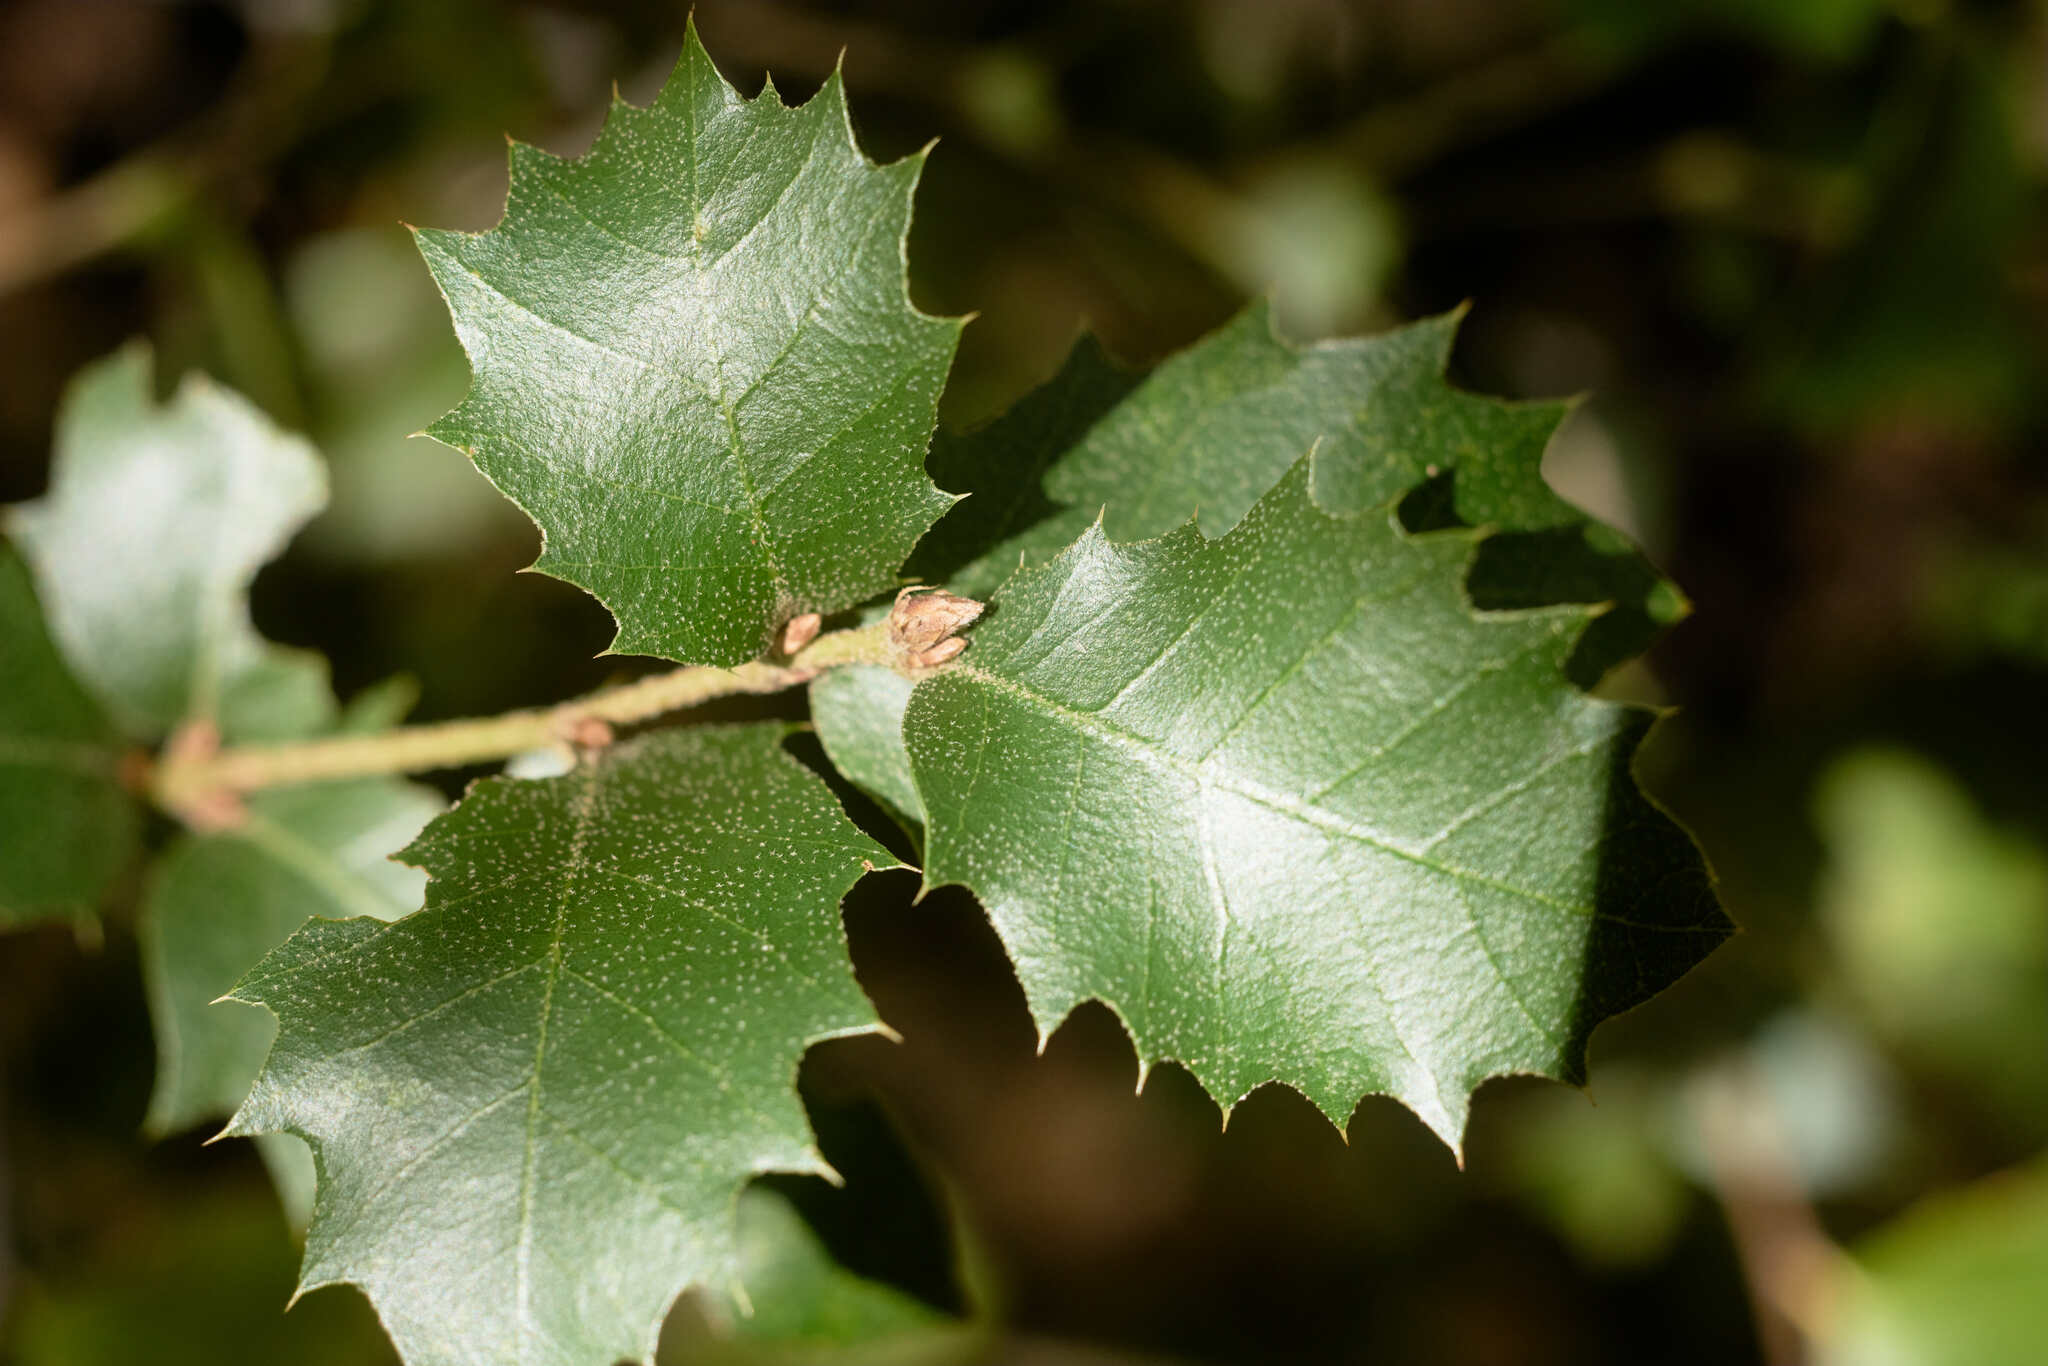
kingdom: Plantae
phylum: Tracheophyta
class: Magnoliopsida
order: Fagales
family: Fagaceae
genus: Quercus
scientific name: Quercus chrysolepis
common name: Canyon live oak
